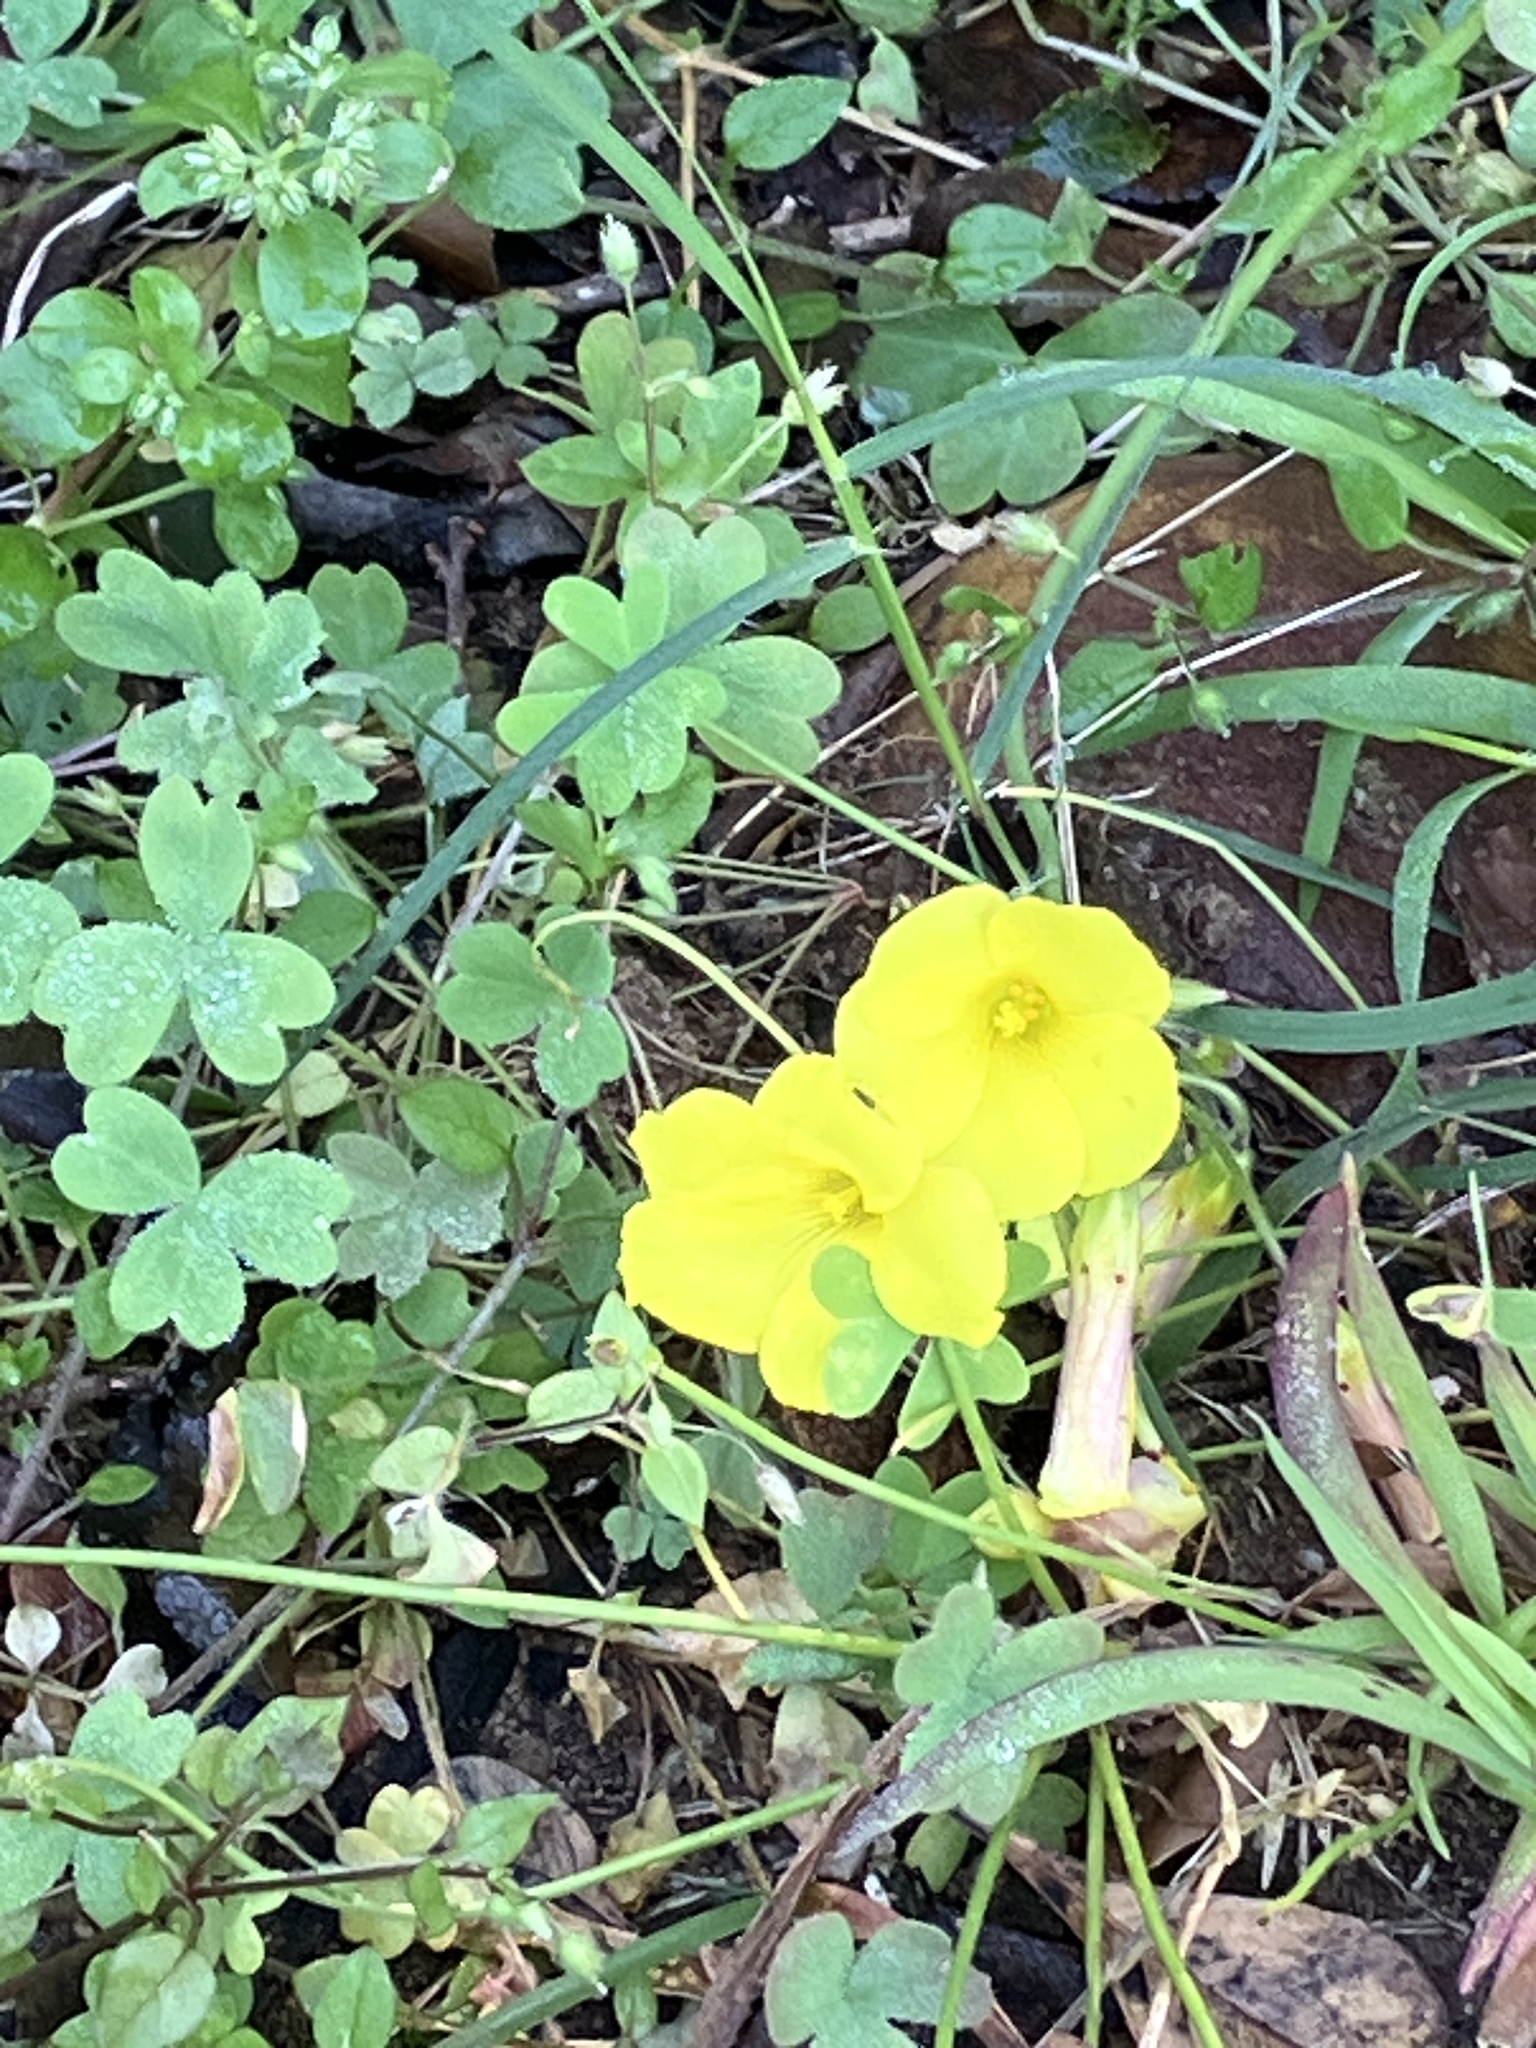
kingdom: Plantae
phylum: Tracheophyta
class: Magnoliopsida
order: Oxalidales
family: Oxalidaceae
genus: Oxalis
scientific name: Oxalis pes-caprae
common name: Bermuda-buttercup
